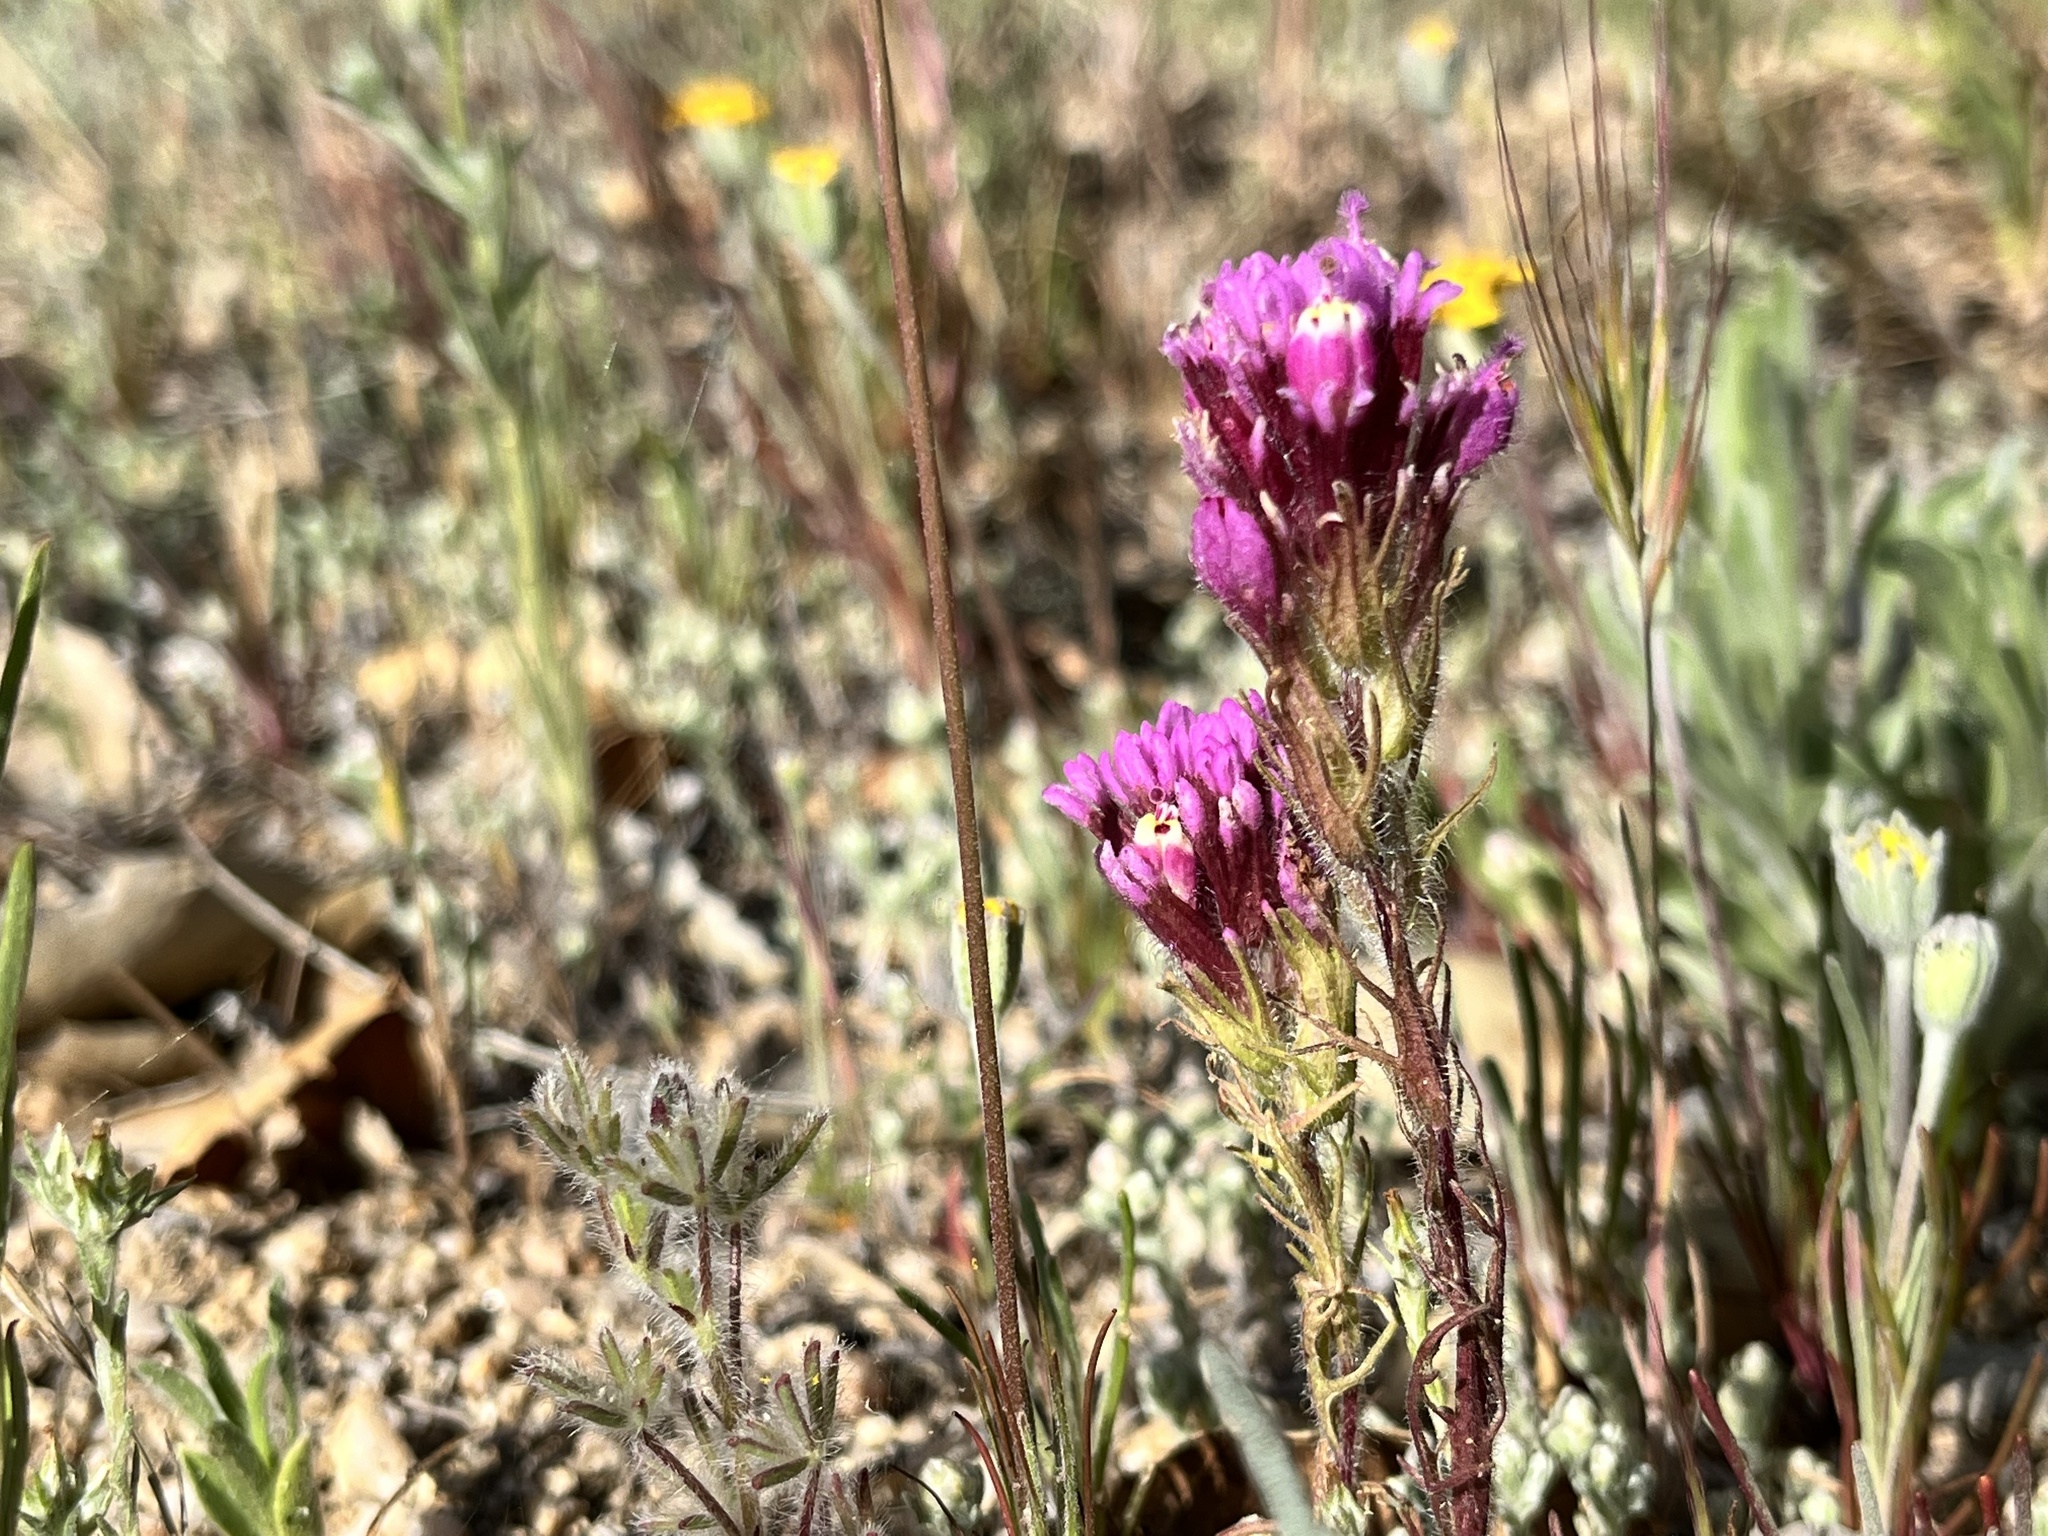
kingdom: Plantae
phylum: Tracheophyta
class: Magnoliopsida
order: Lamiales
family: Orobanchaceae
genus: Castilleja
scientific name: Castilleja exserta
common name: Purple owl-clover
